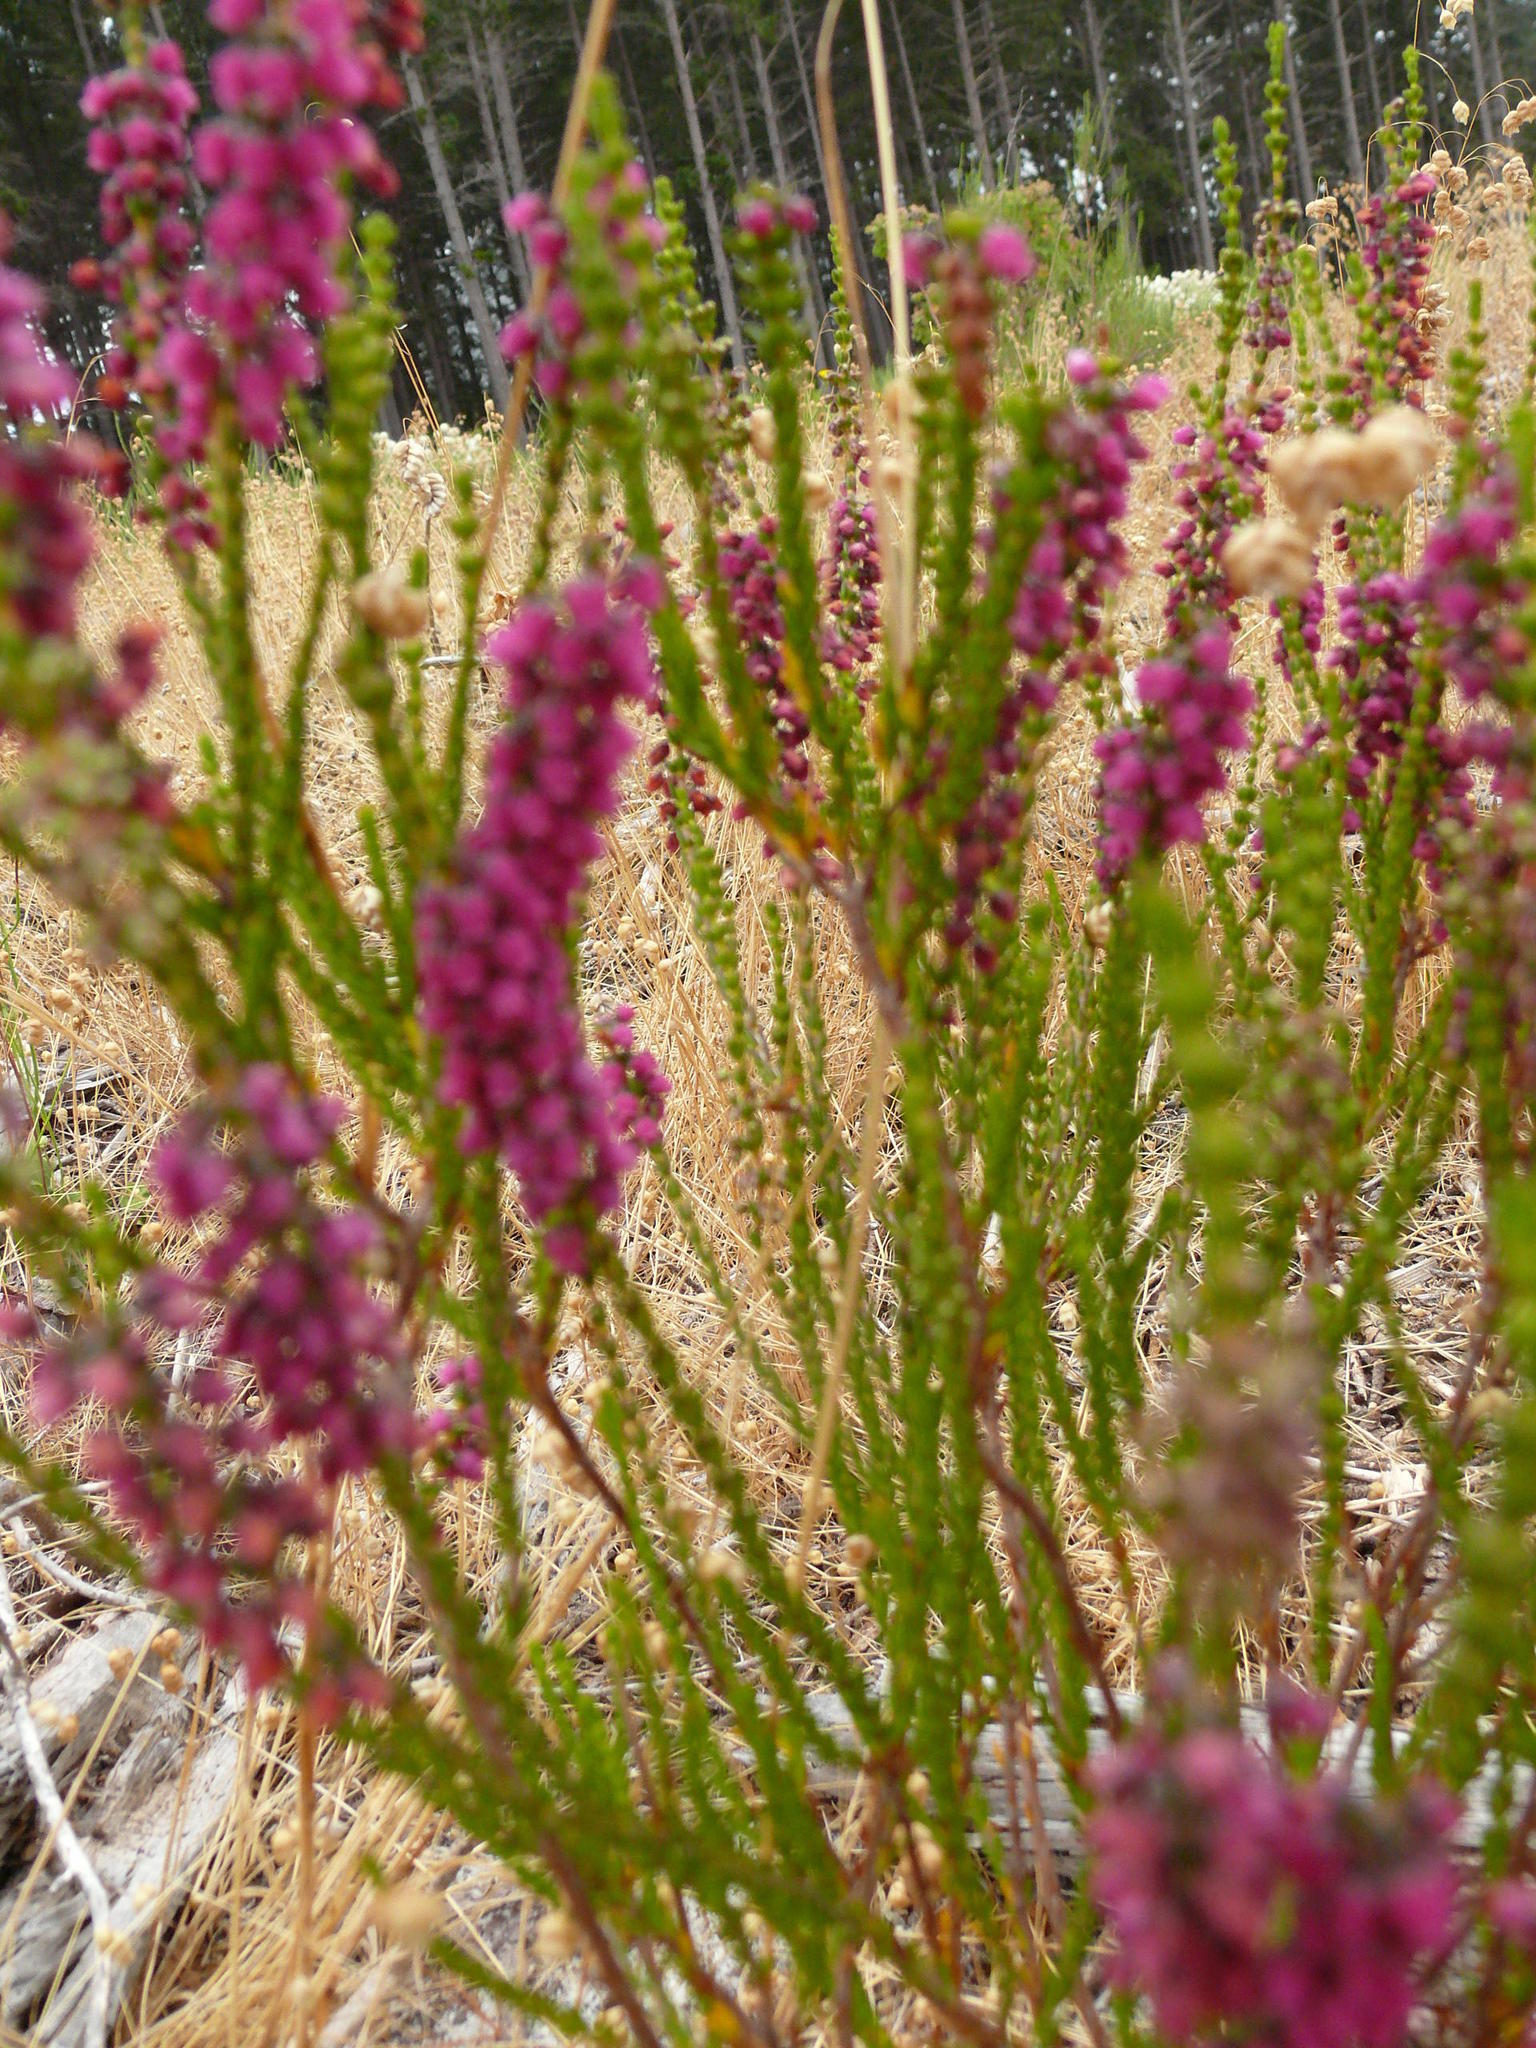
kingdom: Plantae
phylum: Tracheophyta
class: Magnoliopsida
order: Ericales
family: Ericaceae
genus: Erica
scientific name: Erica pulchella
